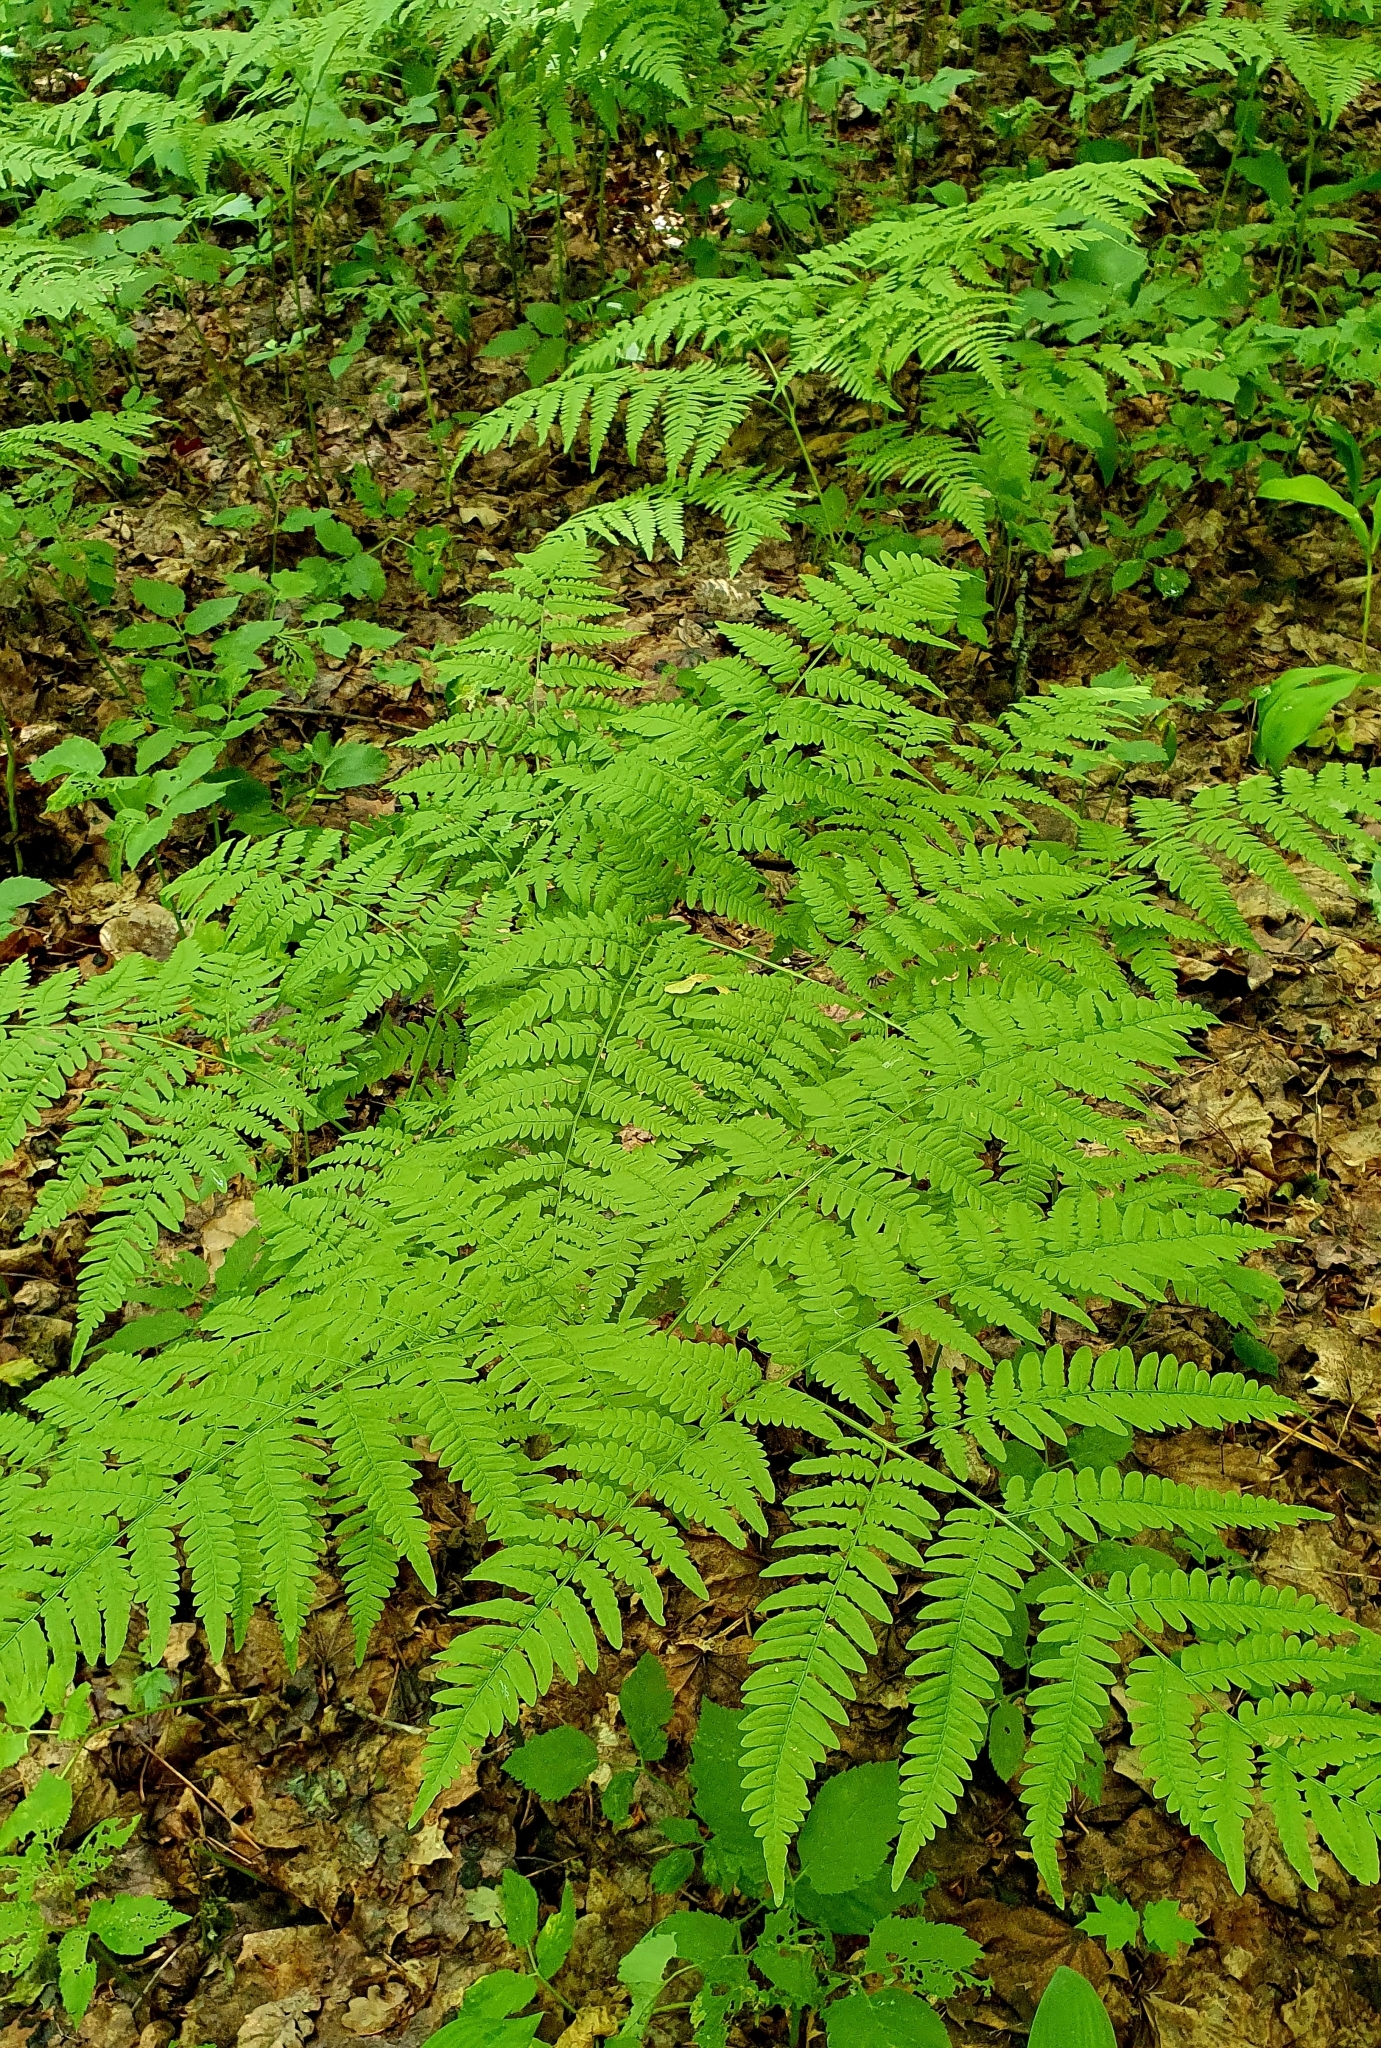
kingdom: Plantae
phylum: Tracheophyta
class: Polypodiopsida
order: Polypodiales
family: Dennstaedtiaceae
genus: Pteridium
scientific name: Pteridium aquilinum
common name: Bracken
